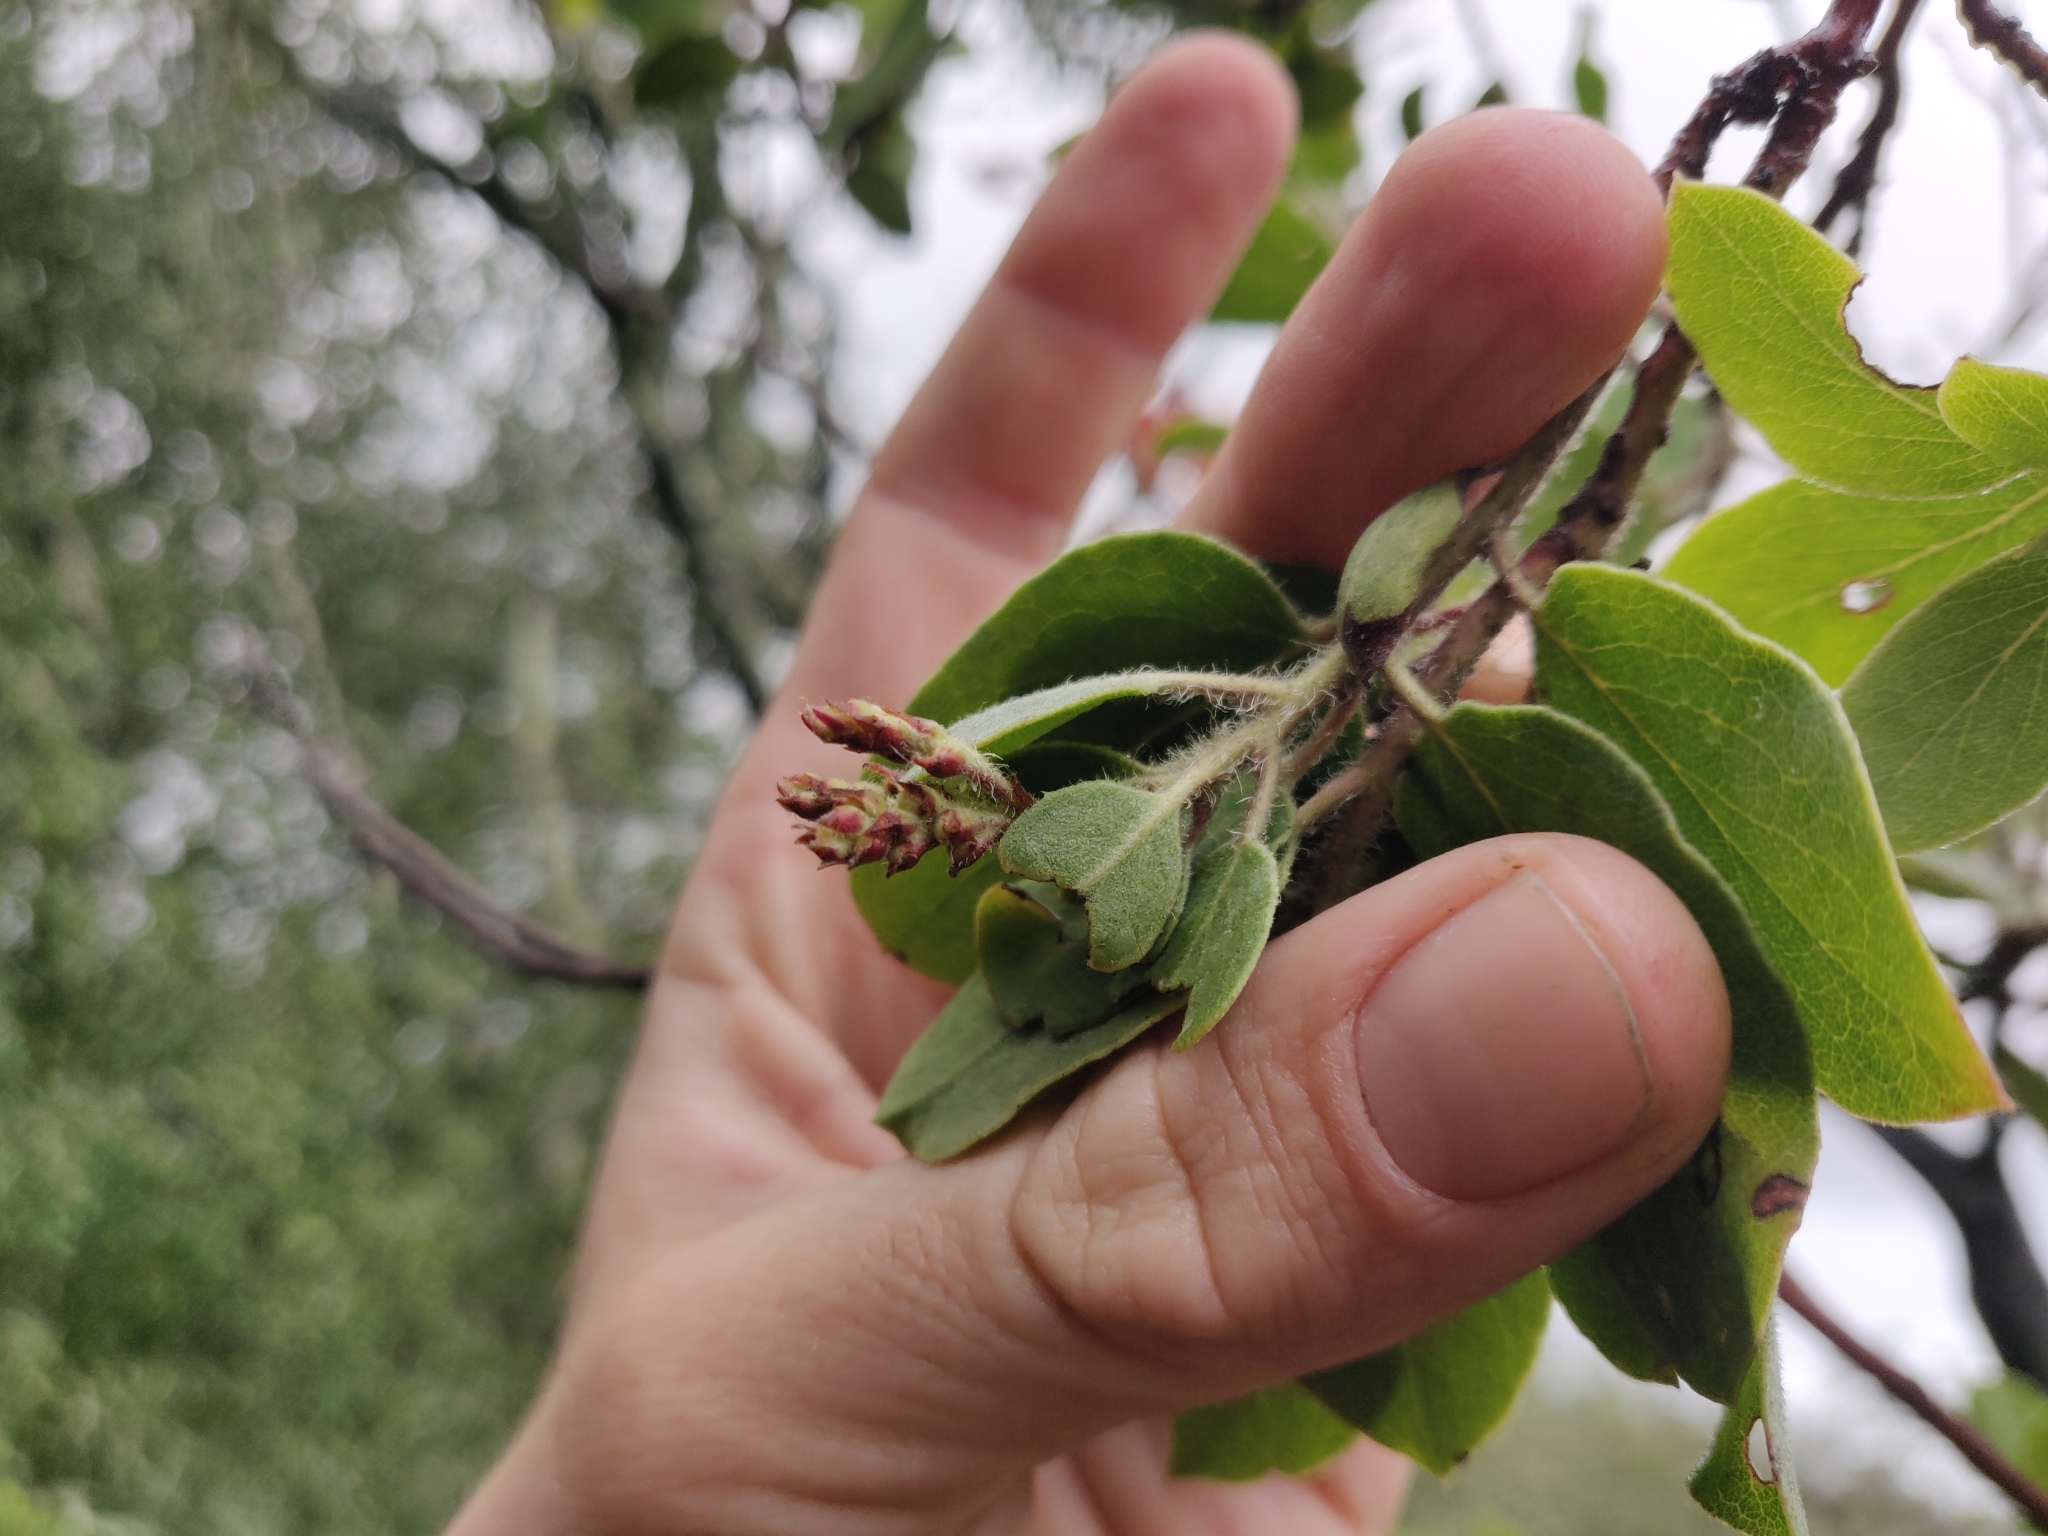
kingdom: Plantae
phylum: Tracheophyta
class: Magnoliopsida
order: Ericales
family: Ericaceae
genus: Arctostaphylos
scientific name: Arctostaphylos glandulosa
